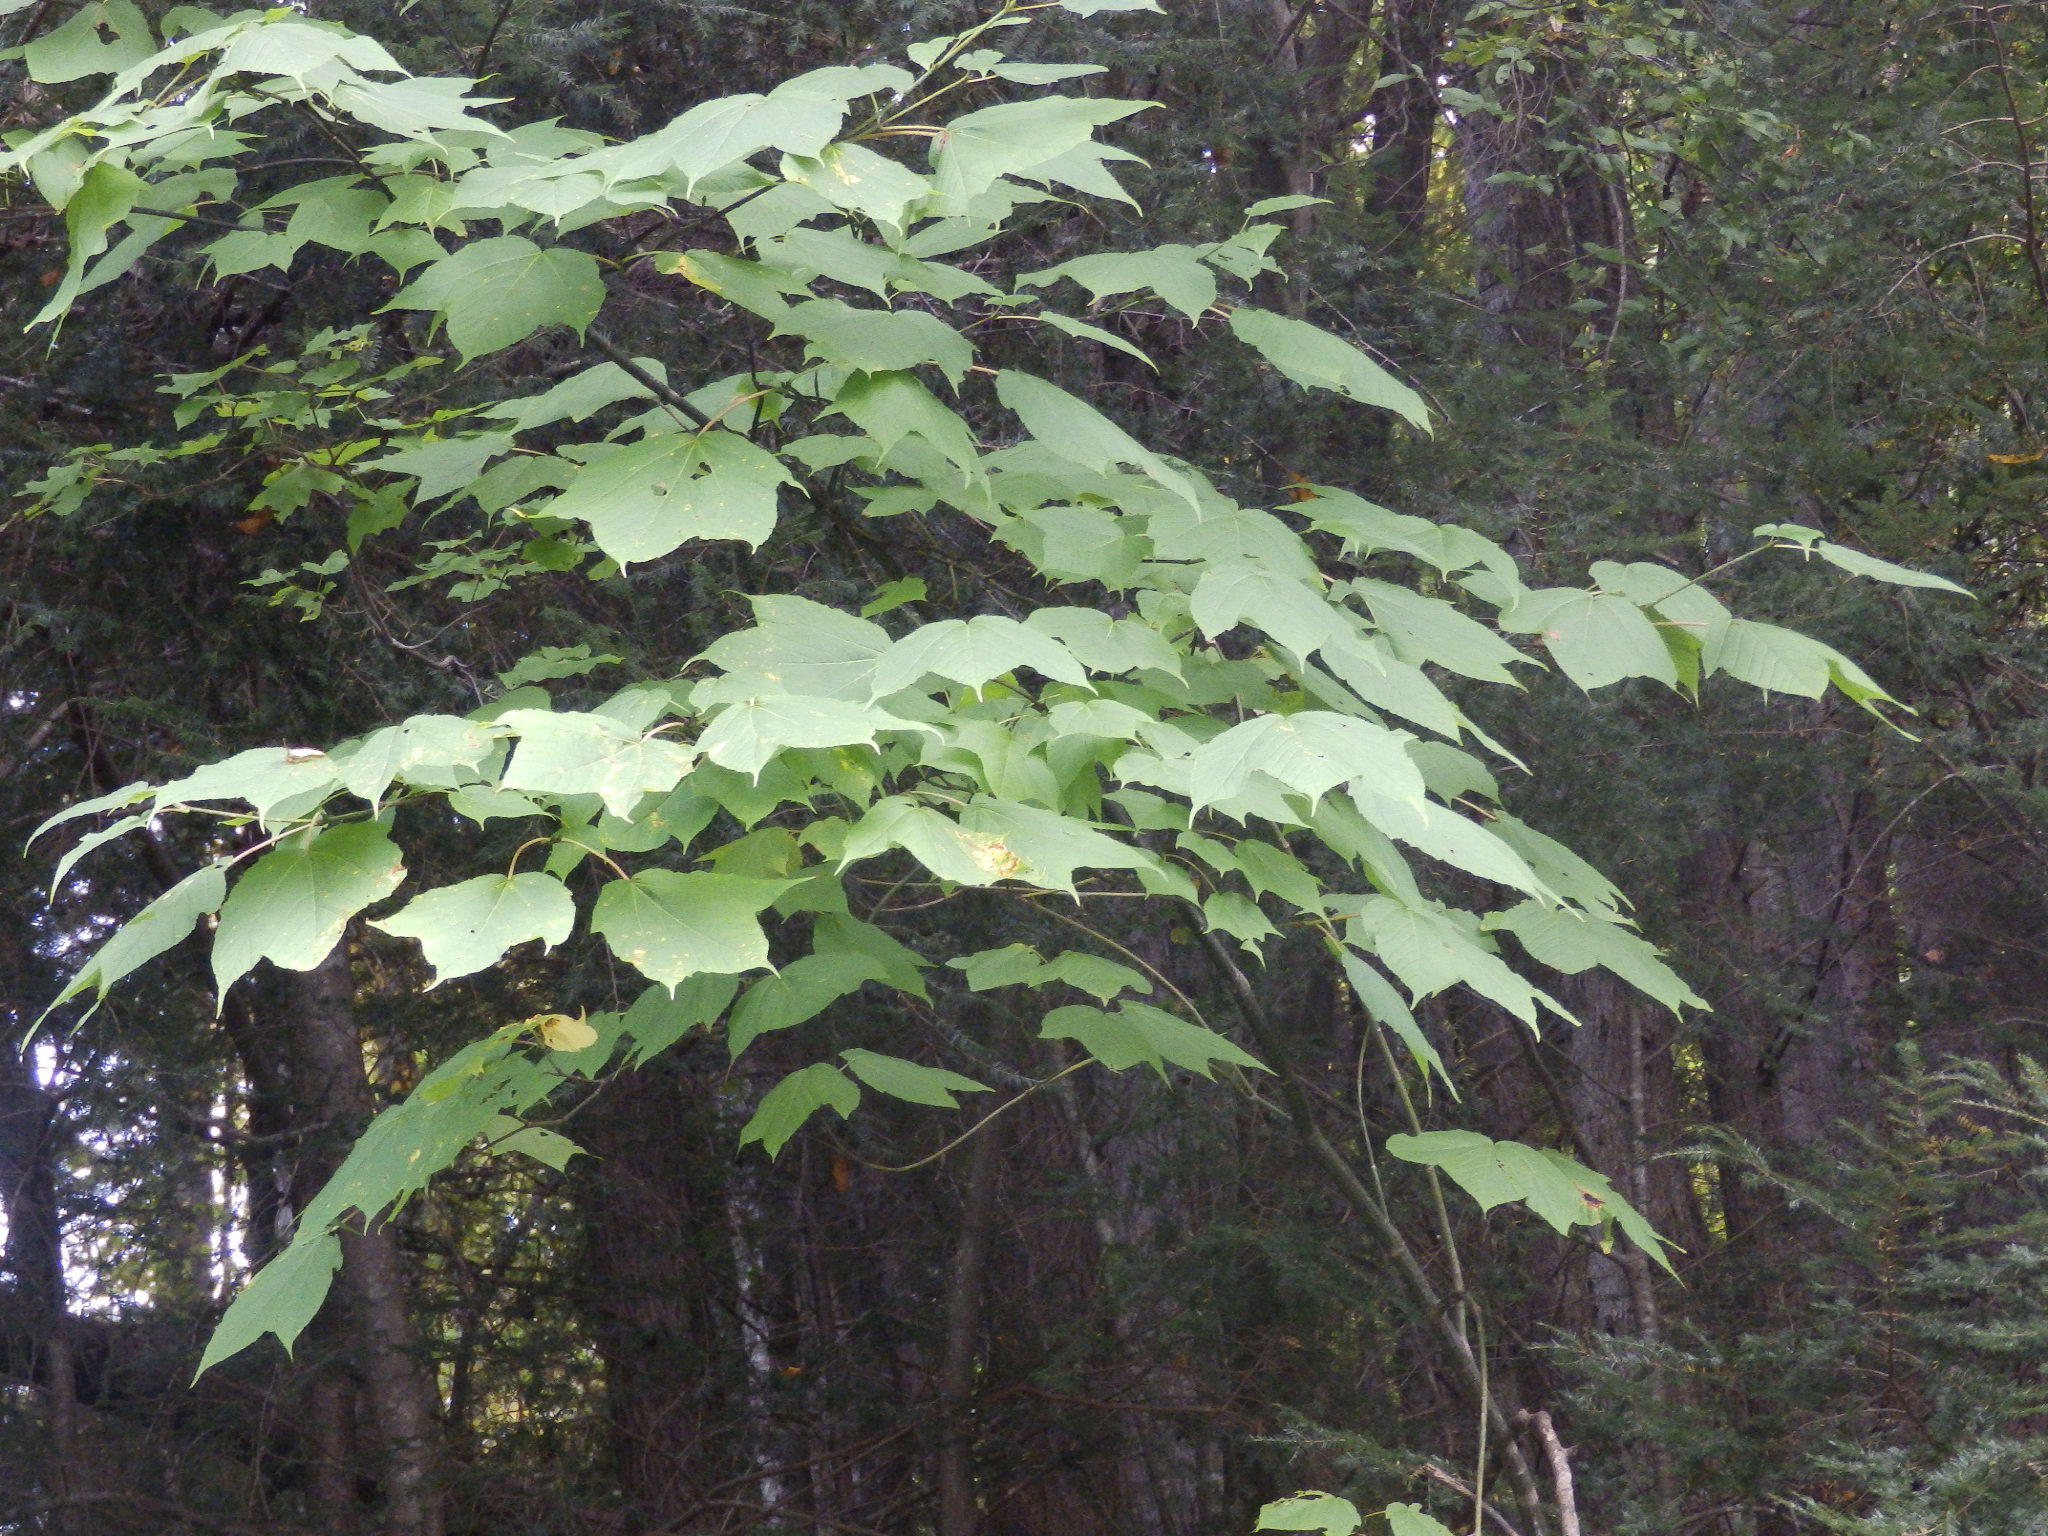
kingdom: Plantae
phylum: Tracheophyta
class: Magnoliopsida
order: Sapindales
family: Sapindaceae
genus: Acer
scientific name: Acer pensylvanicum
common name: Moosewood
